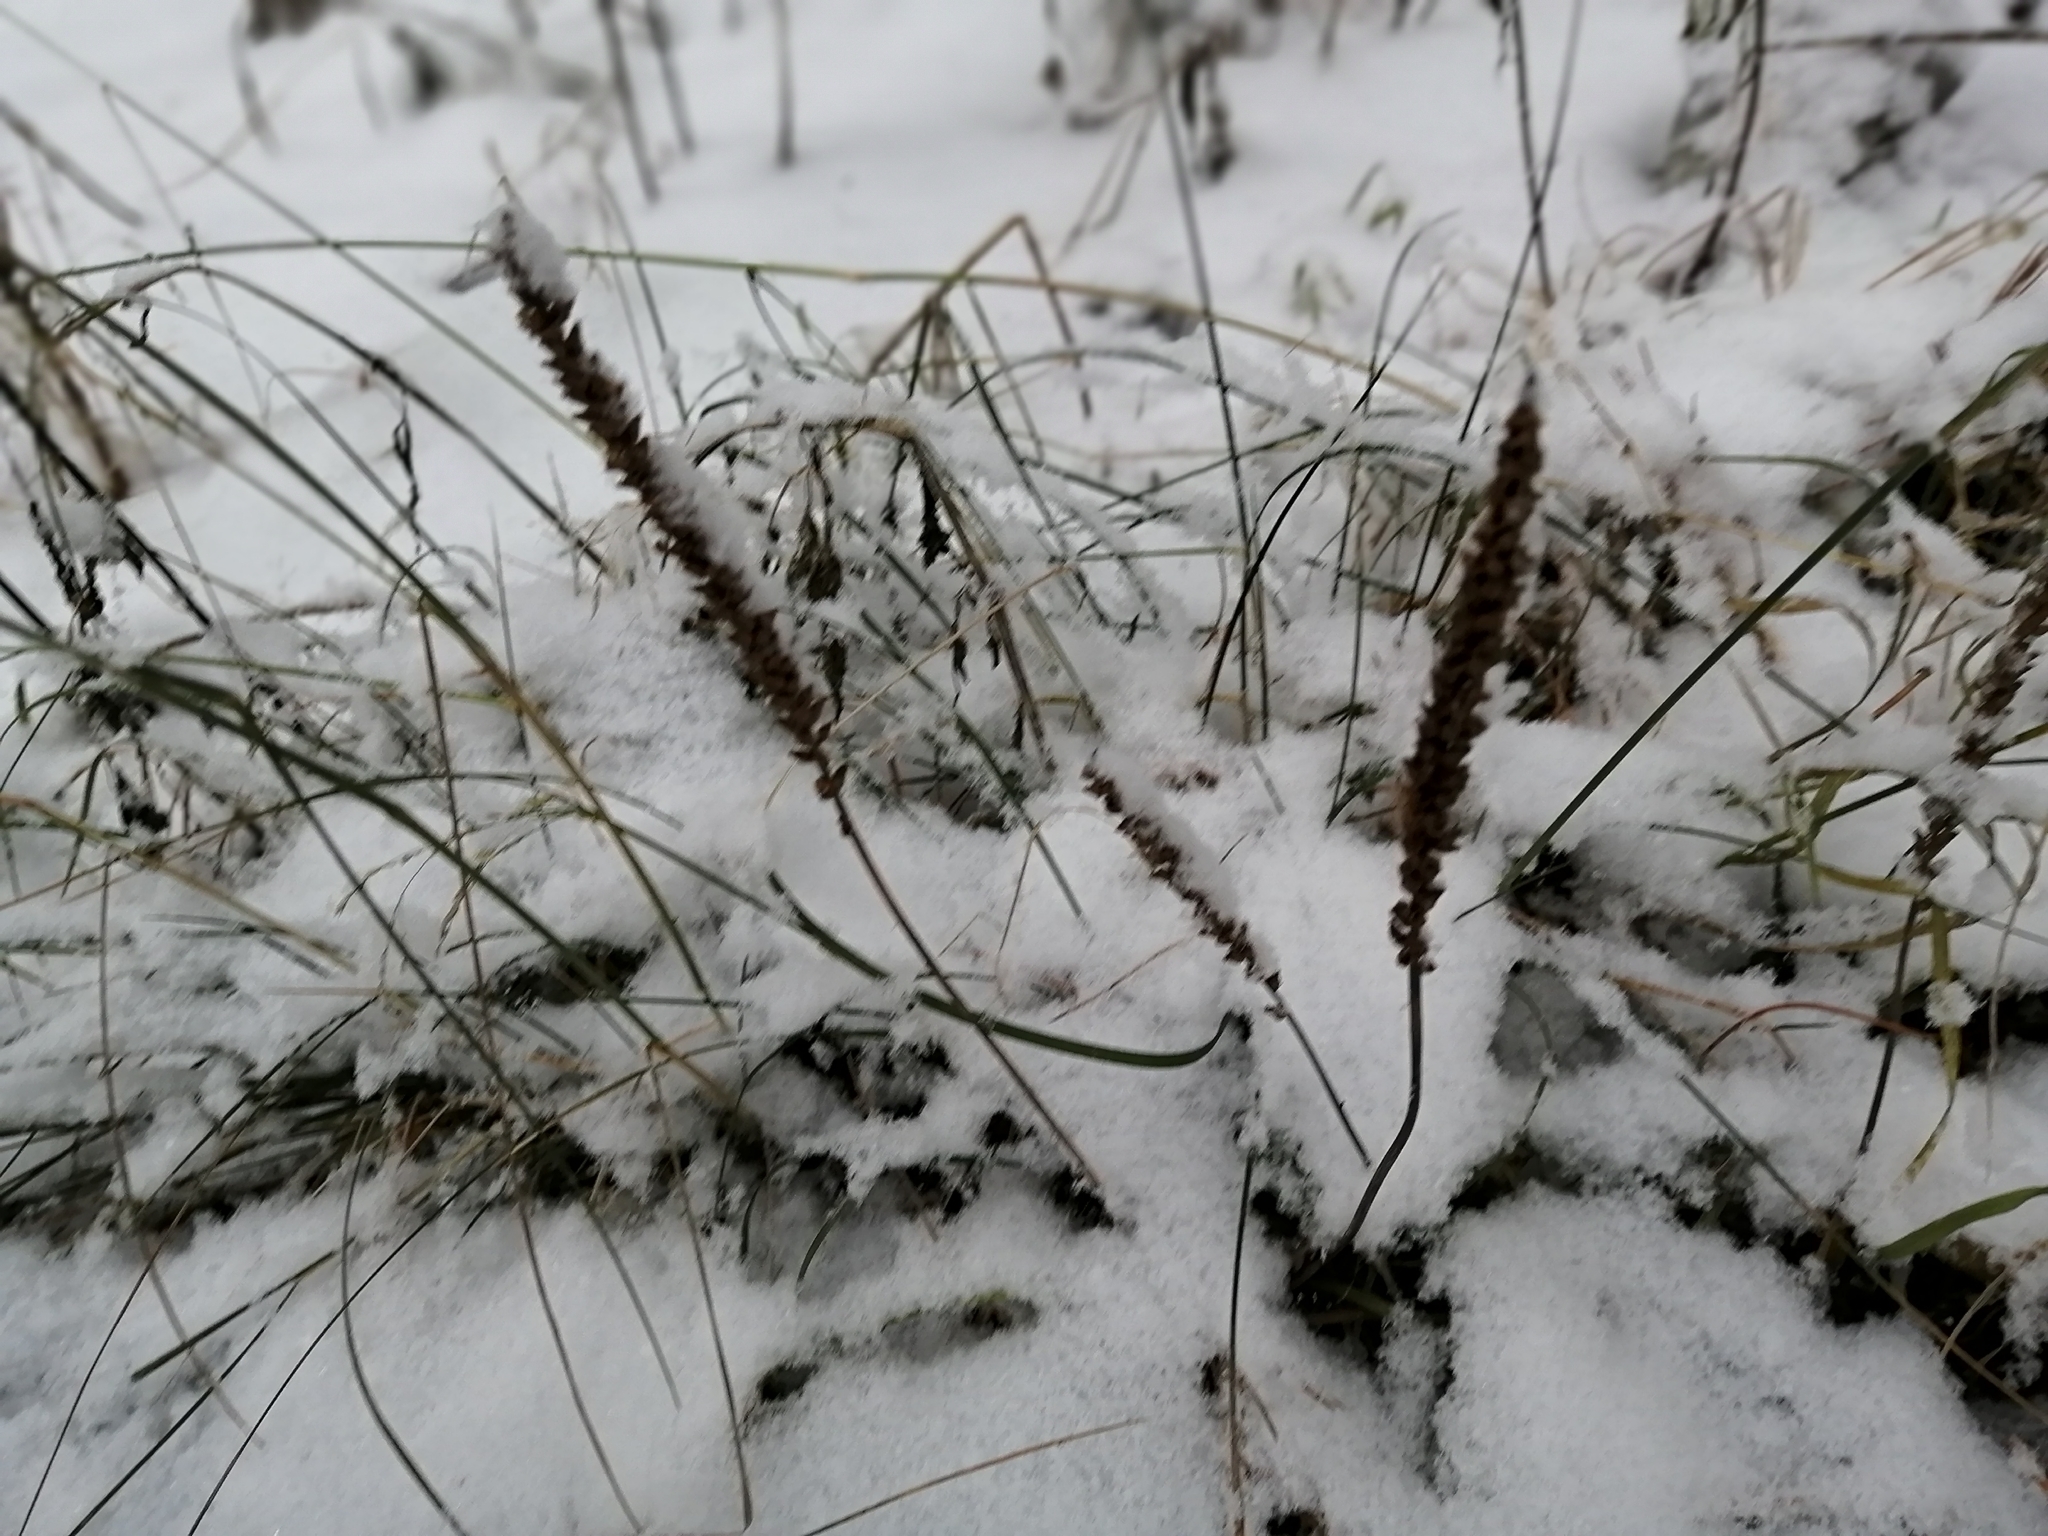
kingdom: Plantae
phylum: Tracheophyta
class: Magnoliopsida
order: Lamiales
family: Plantaginaceae
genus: Plantago
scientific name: Plantago major
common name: Common plantain
